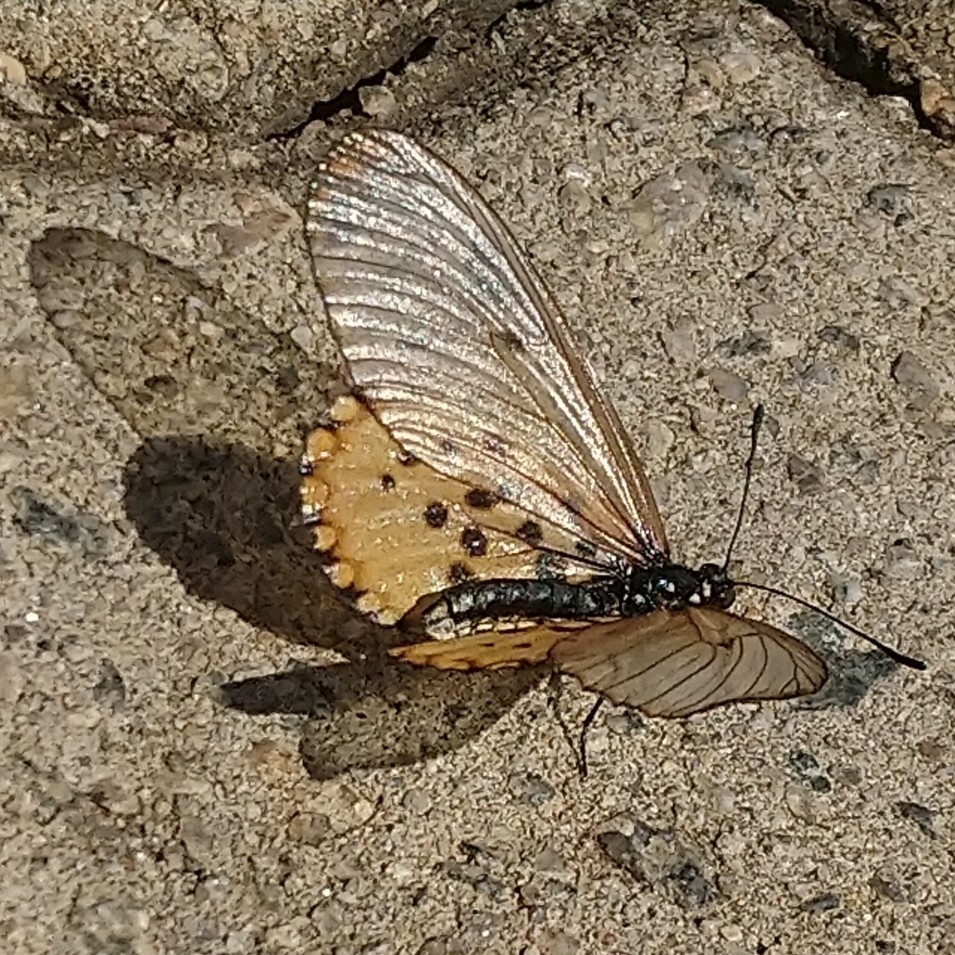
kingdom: Animalia
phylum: Arthropoda
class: Insecta
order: Lepidoptera
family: Nymphalidae
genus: Acraea
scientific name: Acraea horta
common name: Garden acraea
